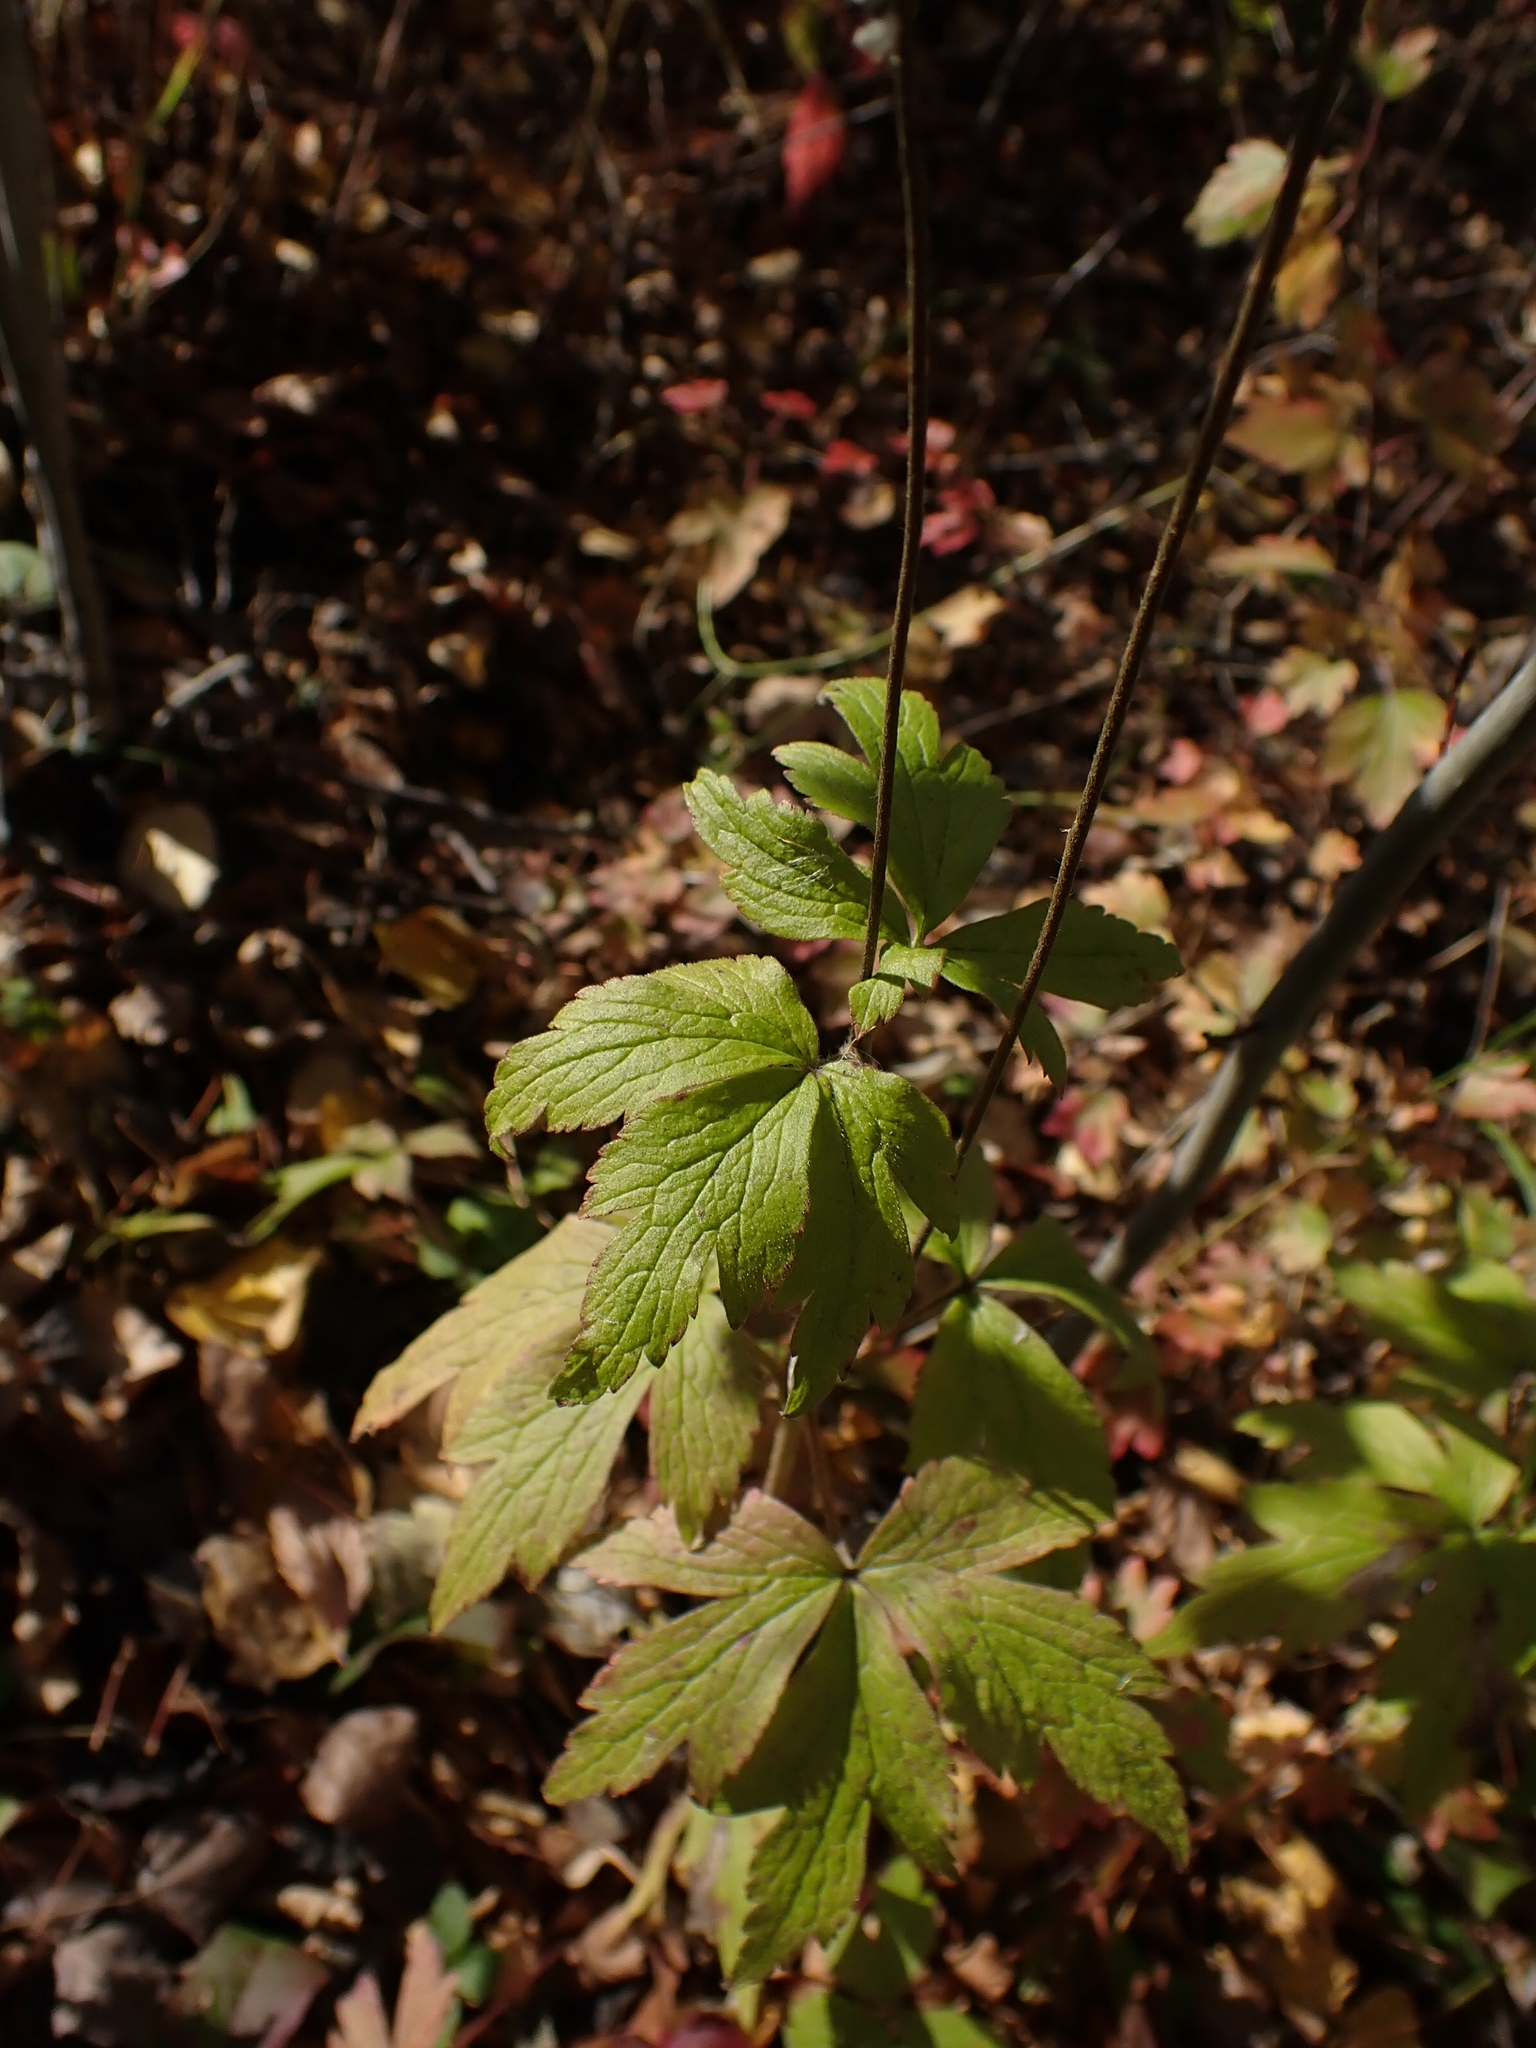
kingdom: Plantae
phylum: Tracheophyta
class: Magnoliopsida
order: Ranunculales
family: Ranunculaceae
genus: Anemone
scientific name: Anemone virginiana
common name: Tall anemone
